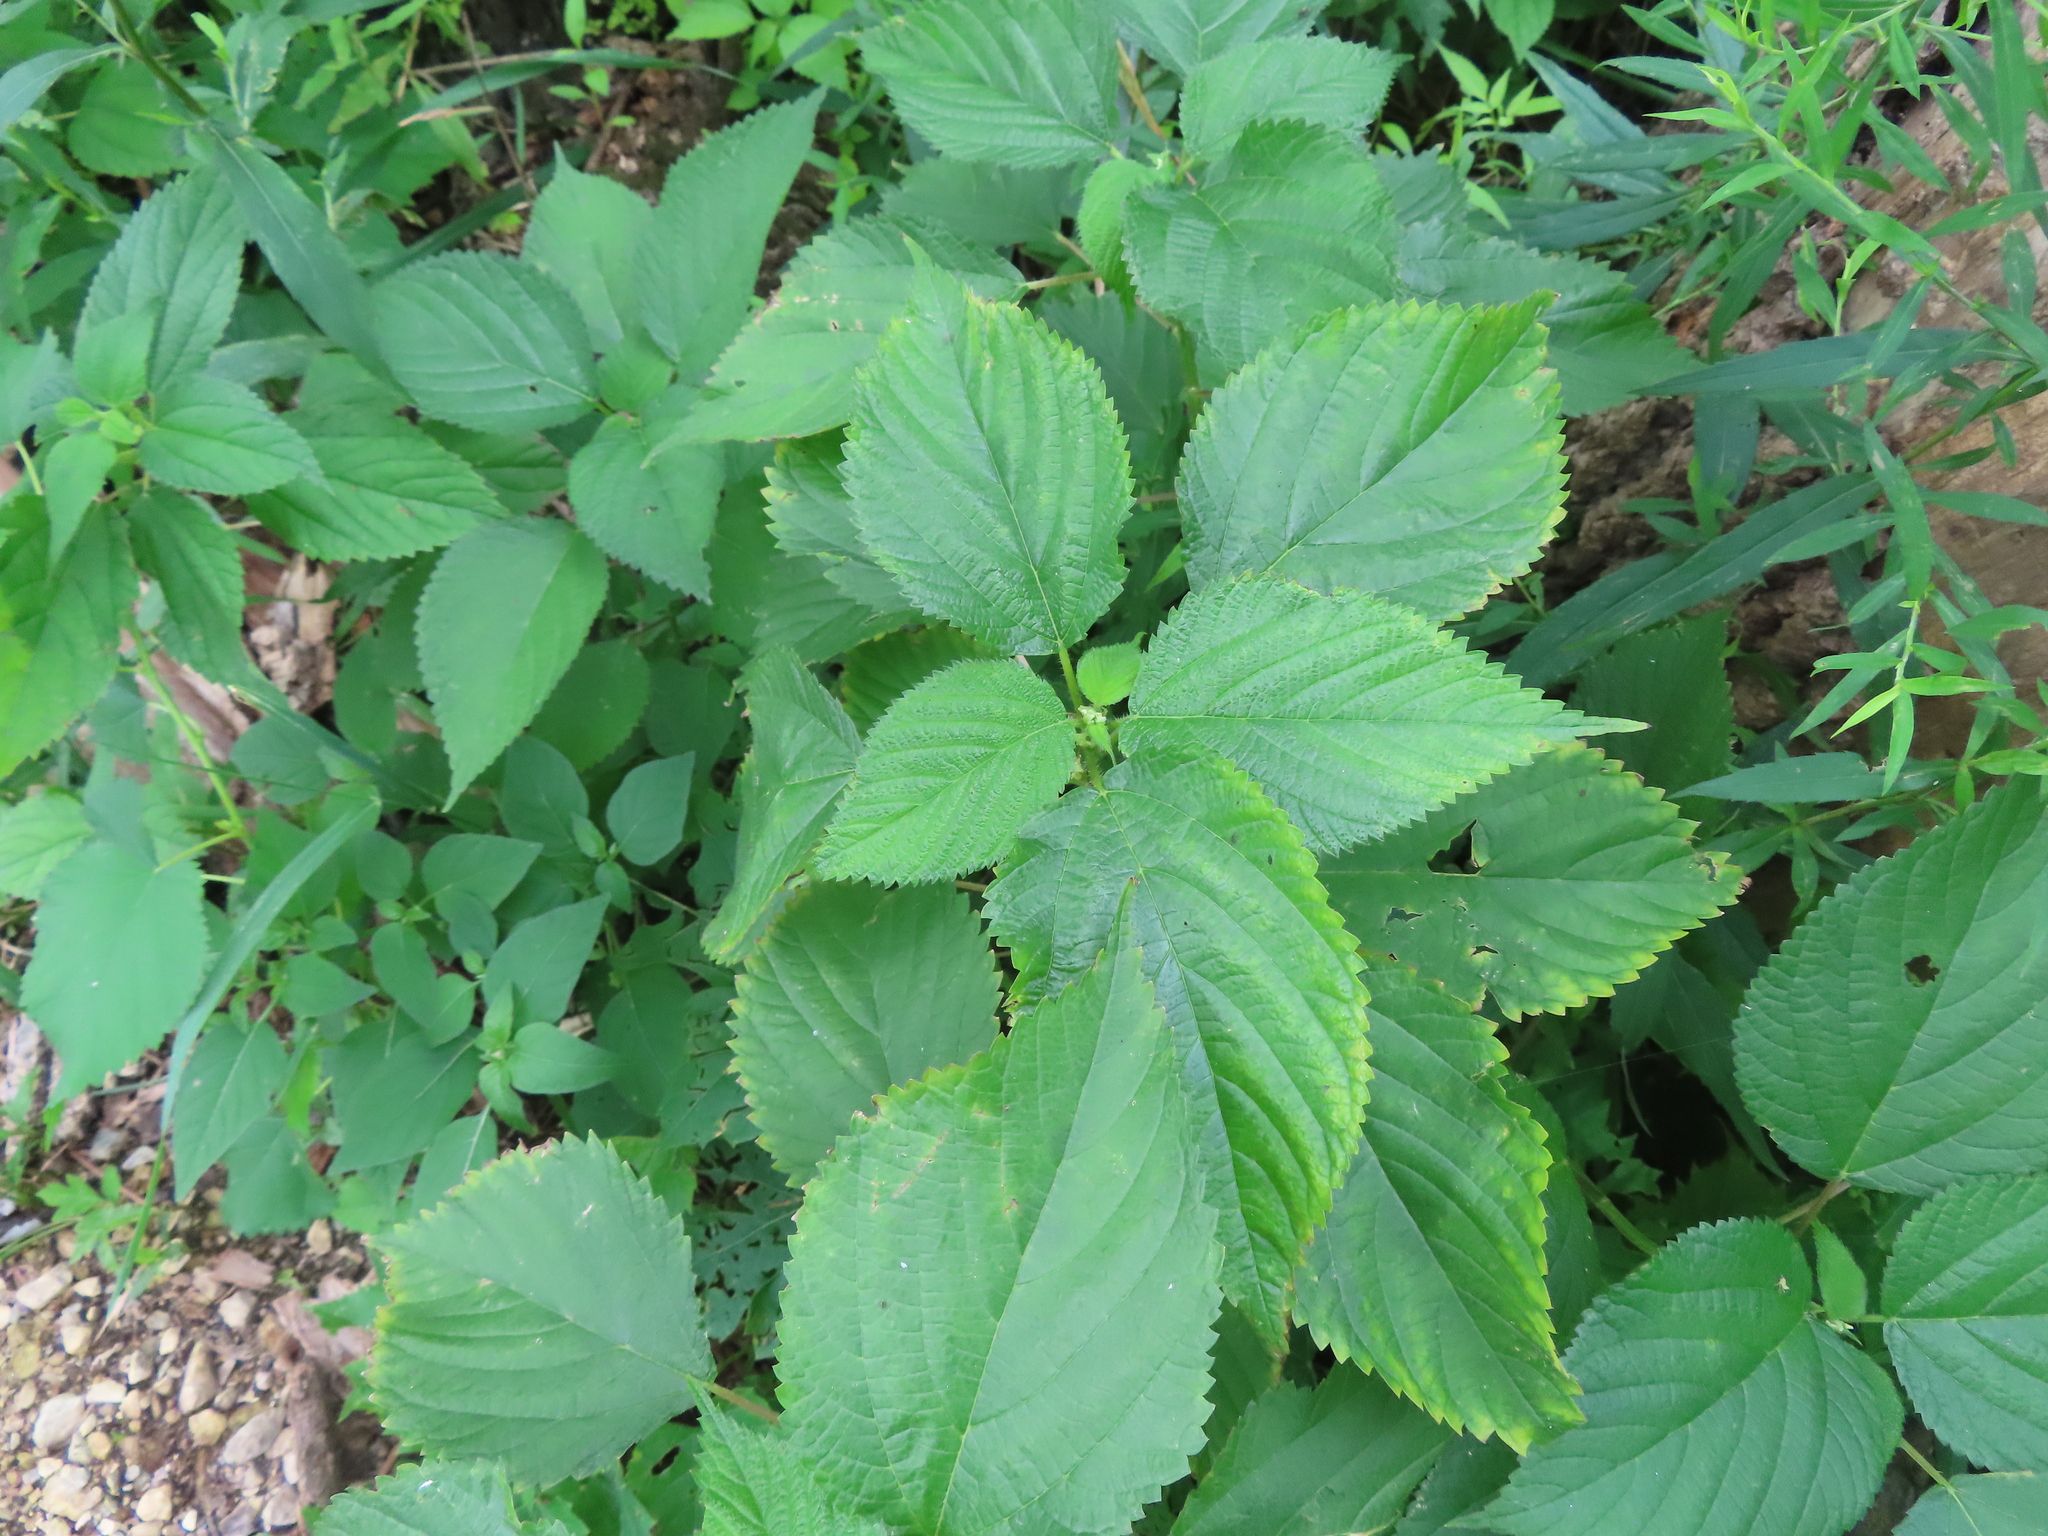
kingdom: Plantae
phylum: Tracheophyta
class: Magnoliopsida
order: Rosales
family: Urticaceae
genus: Laportea
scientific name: Laportea canadensis
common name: Canada nettle
